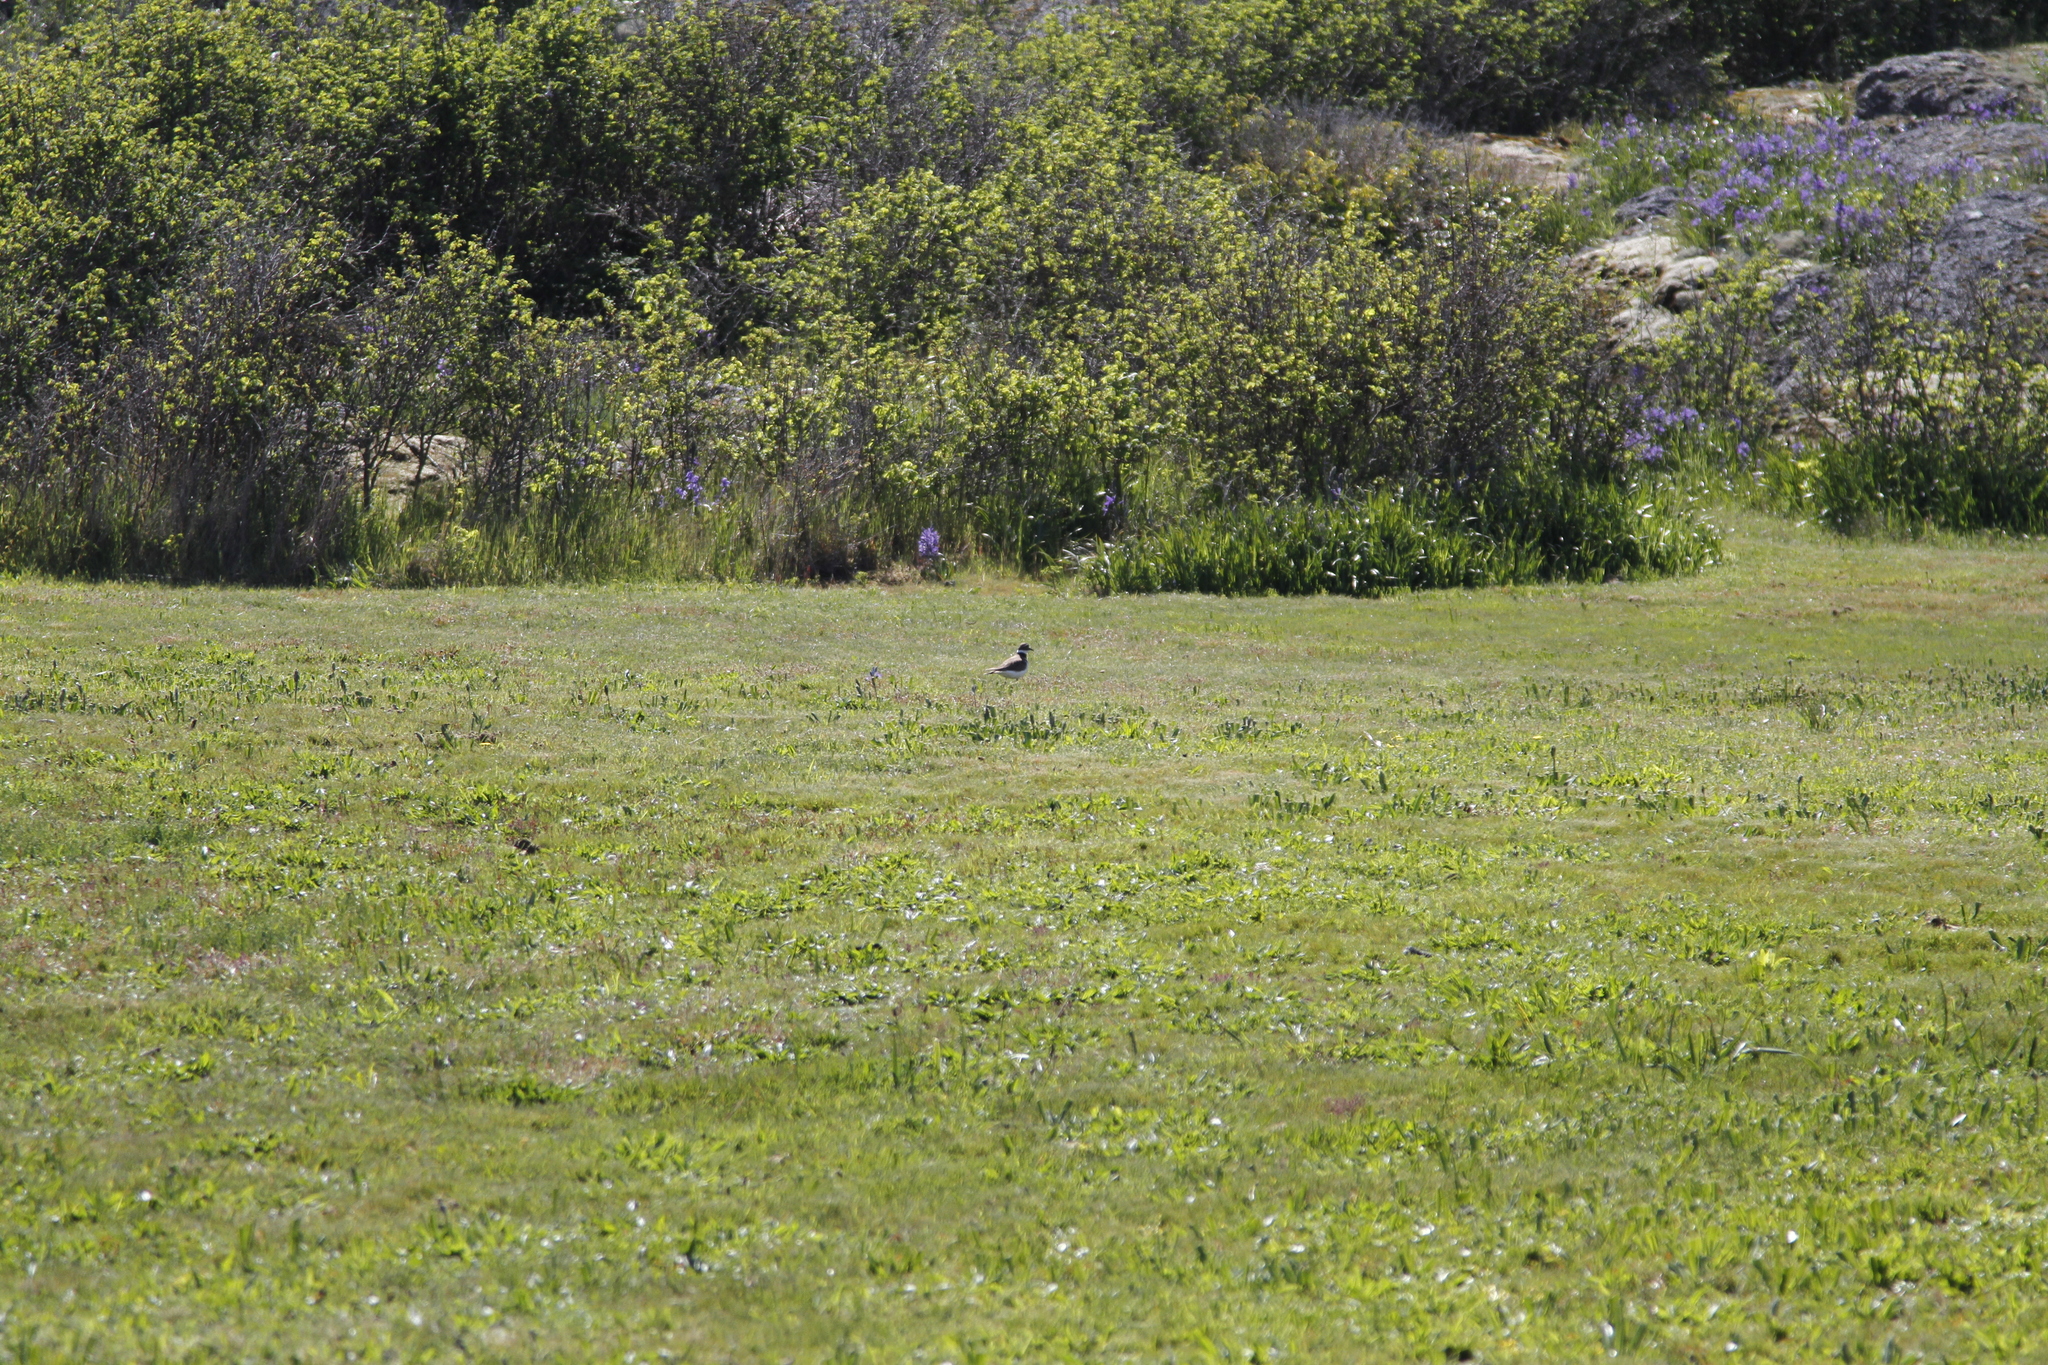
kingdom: Animalia
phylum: Chordata
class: Aves
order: Charadriiformes
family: Charadriidae
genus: Charadrius
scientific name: Charadrius vociferus
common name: Killdeer
